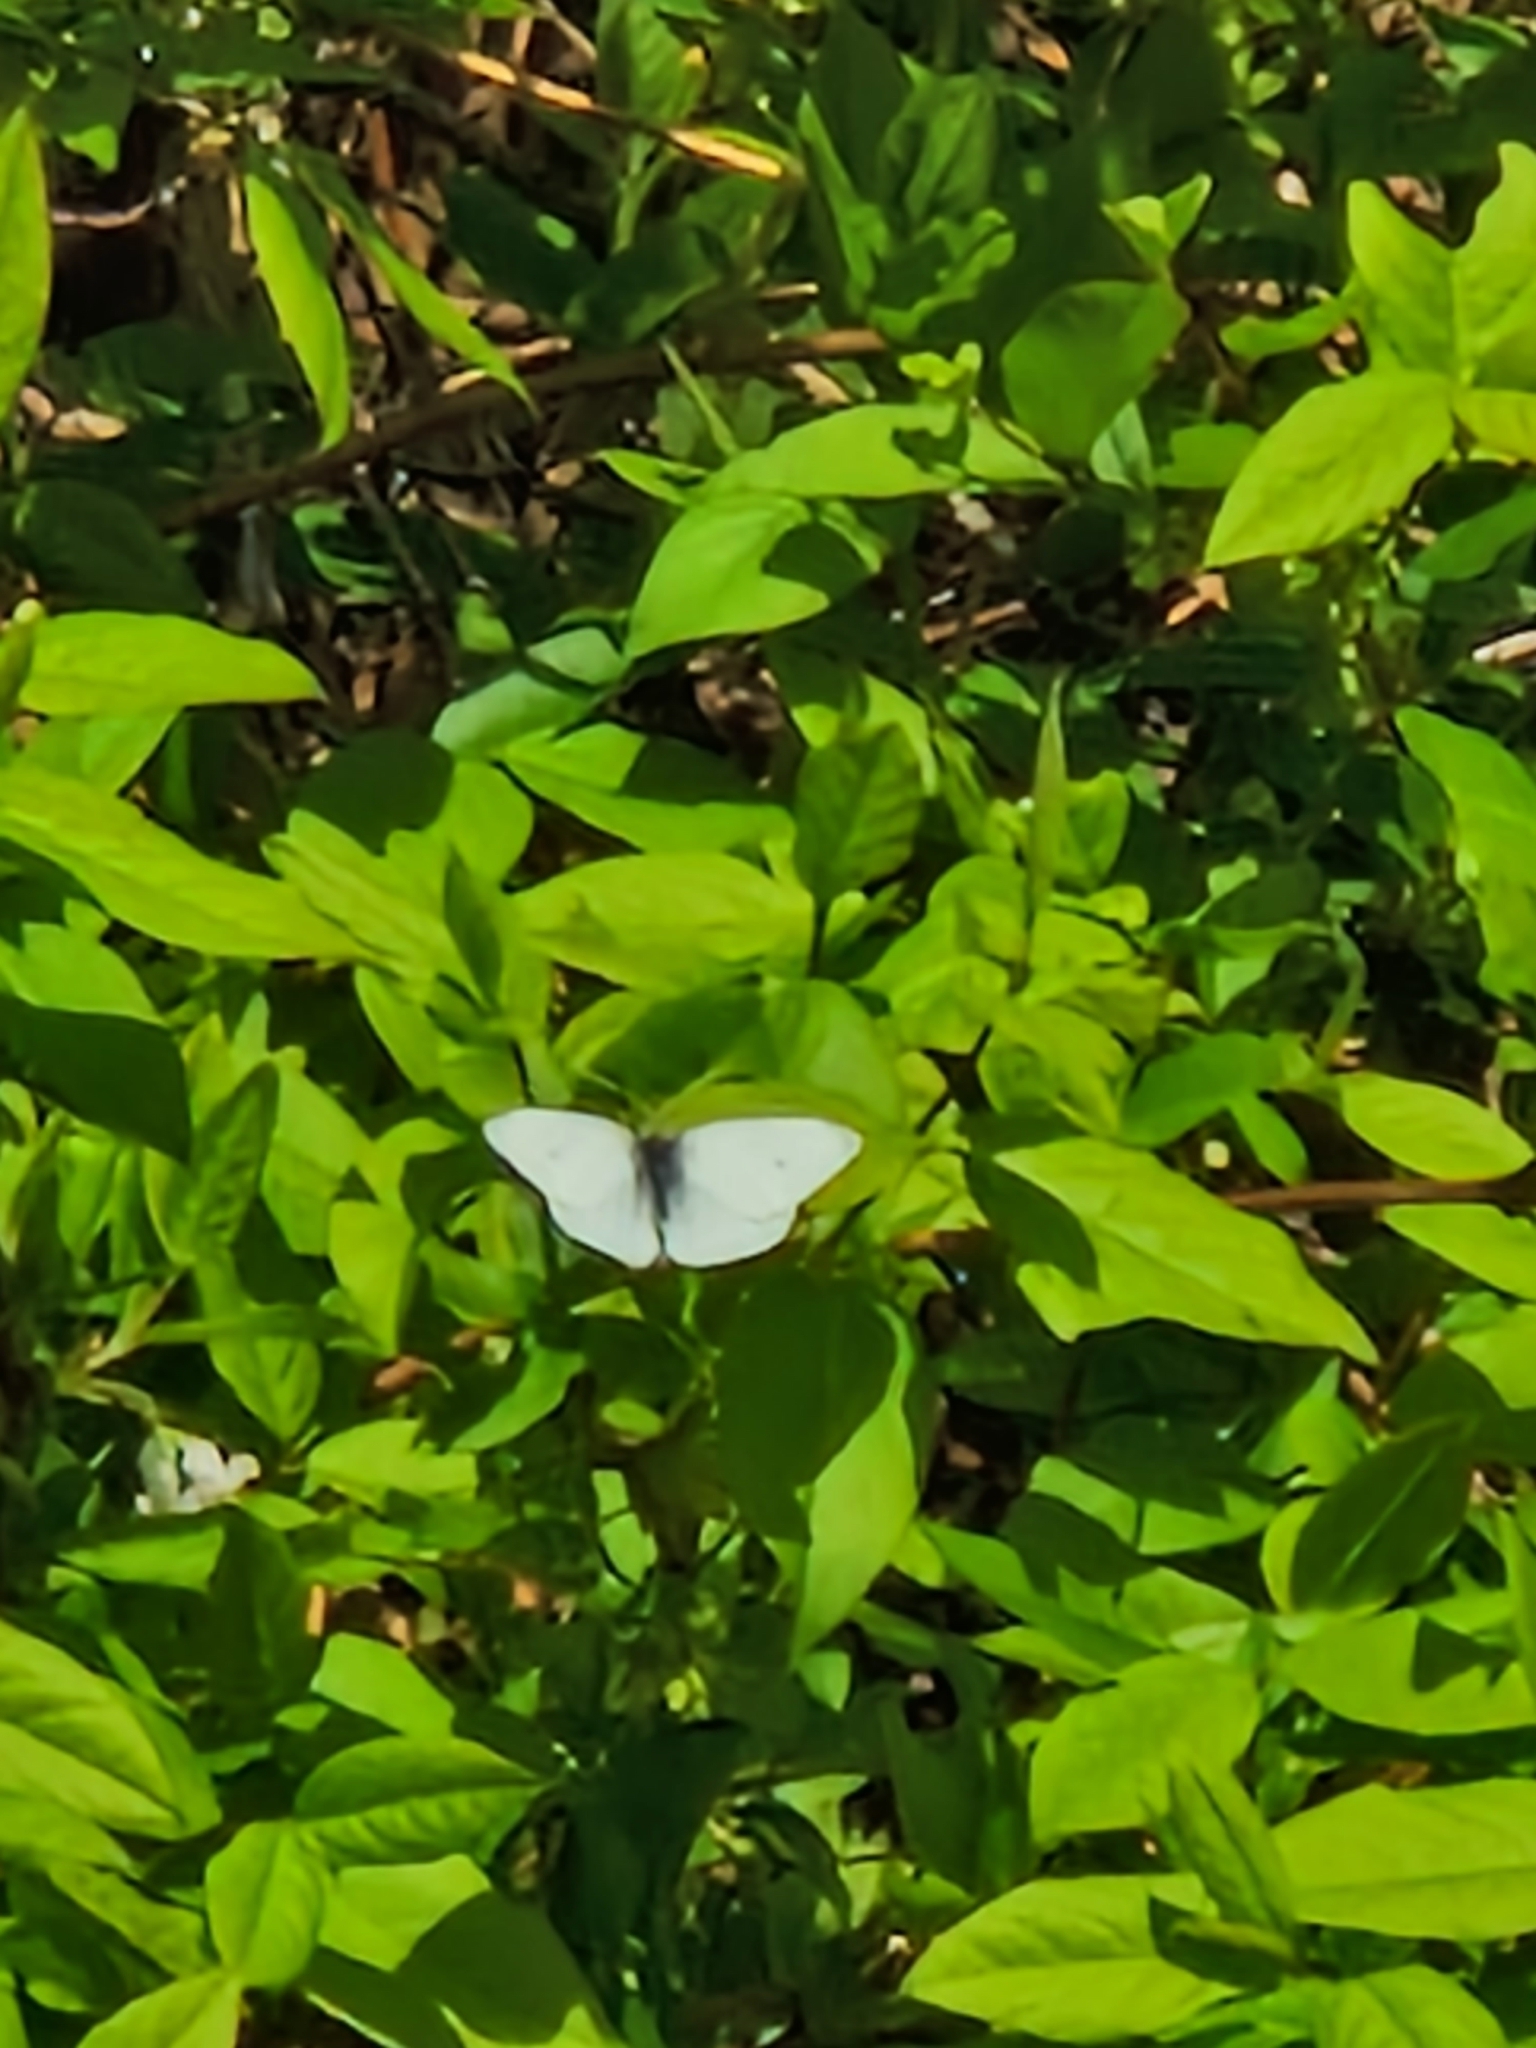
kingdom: Animalia
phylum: Arthropoda
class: Insecta
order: Lepidoptera
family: Pieridae
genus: Pieris
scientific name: Pieris rapae
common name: Small white
